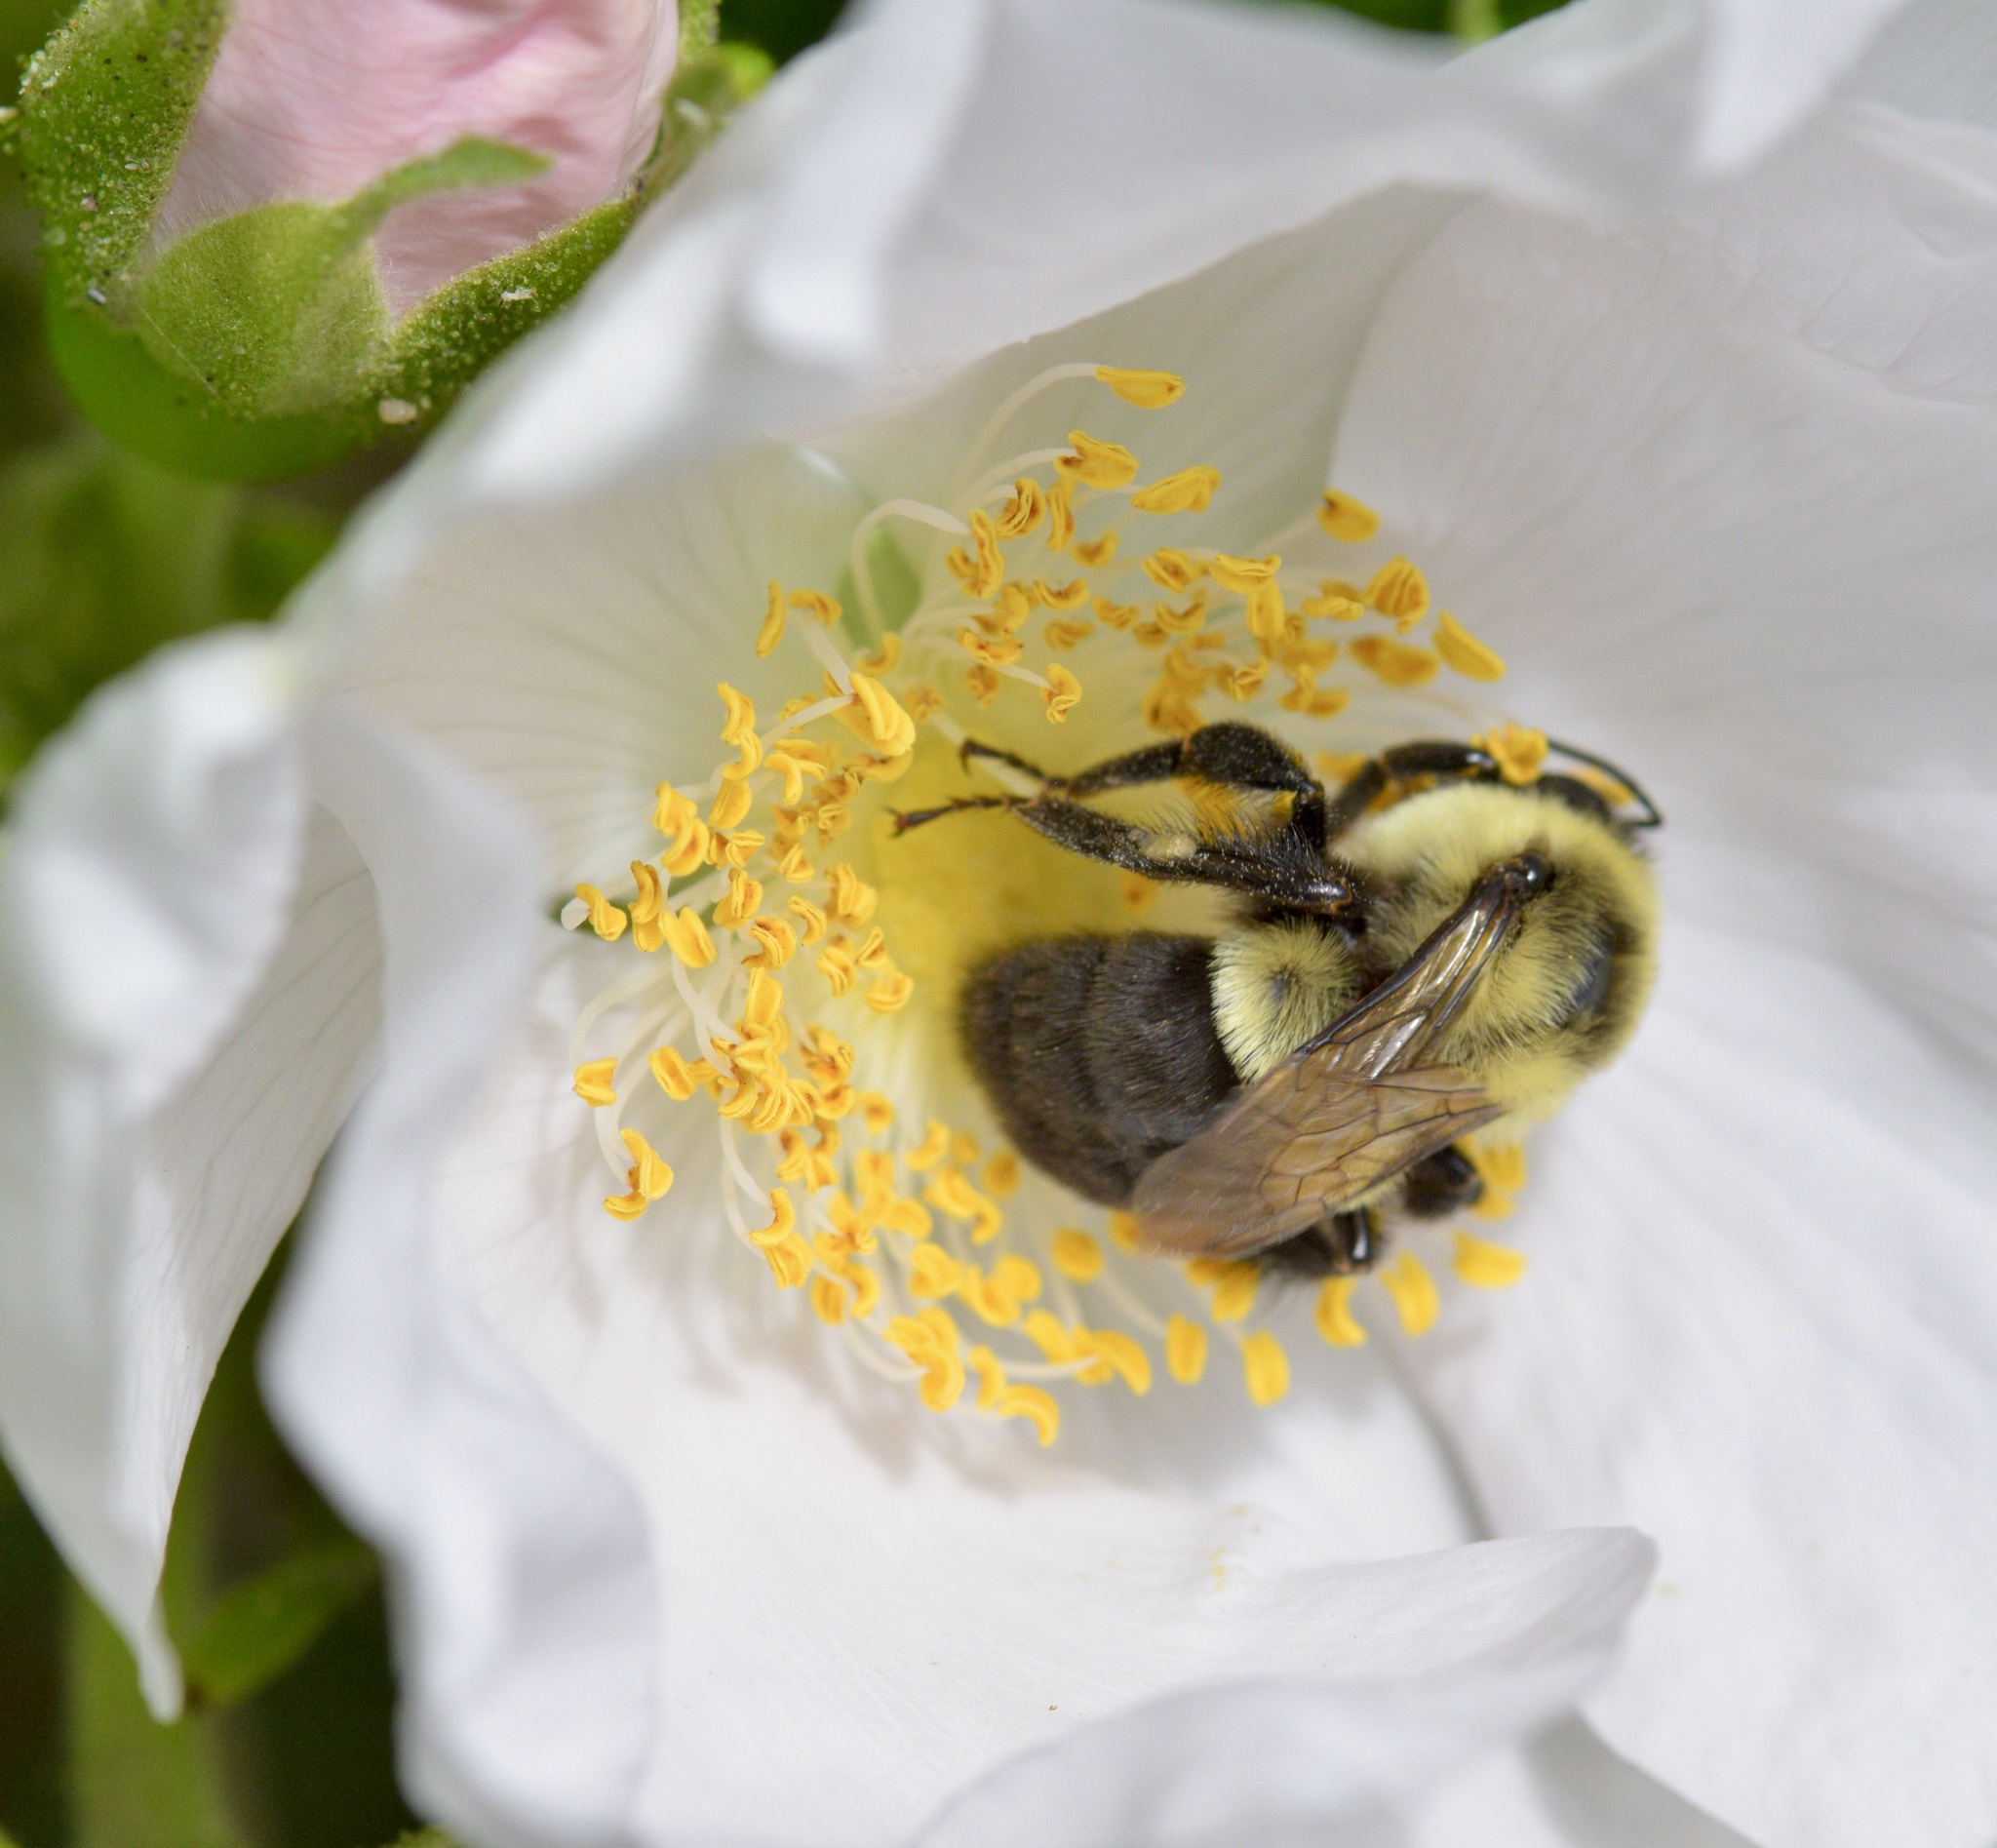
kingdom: Animalia
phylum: Arthropoda
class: Insecta
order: Hymenoptera
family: Apidae
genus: Bombus
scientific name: Bombus impatiens
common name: Common eastern bumble bee
